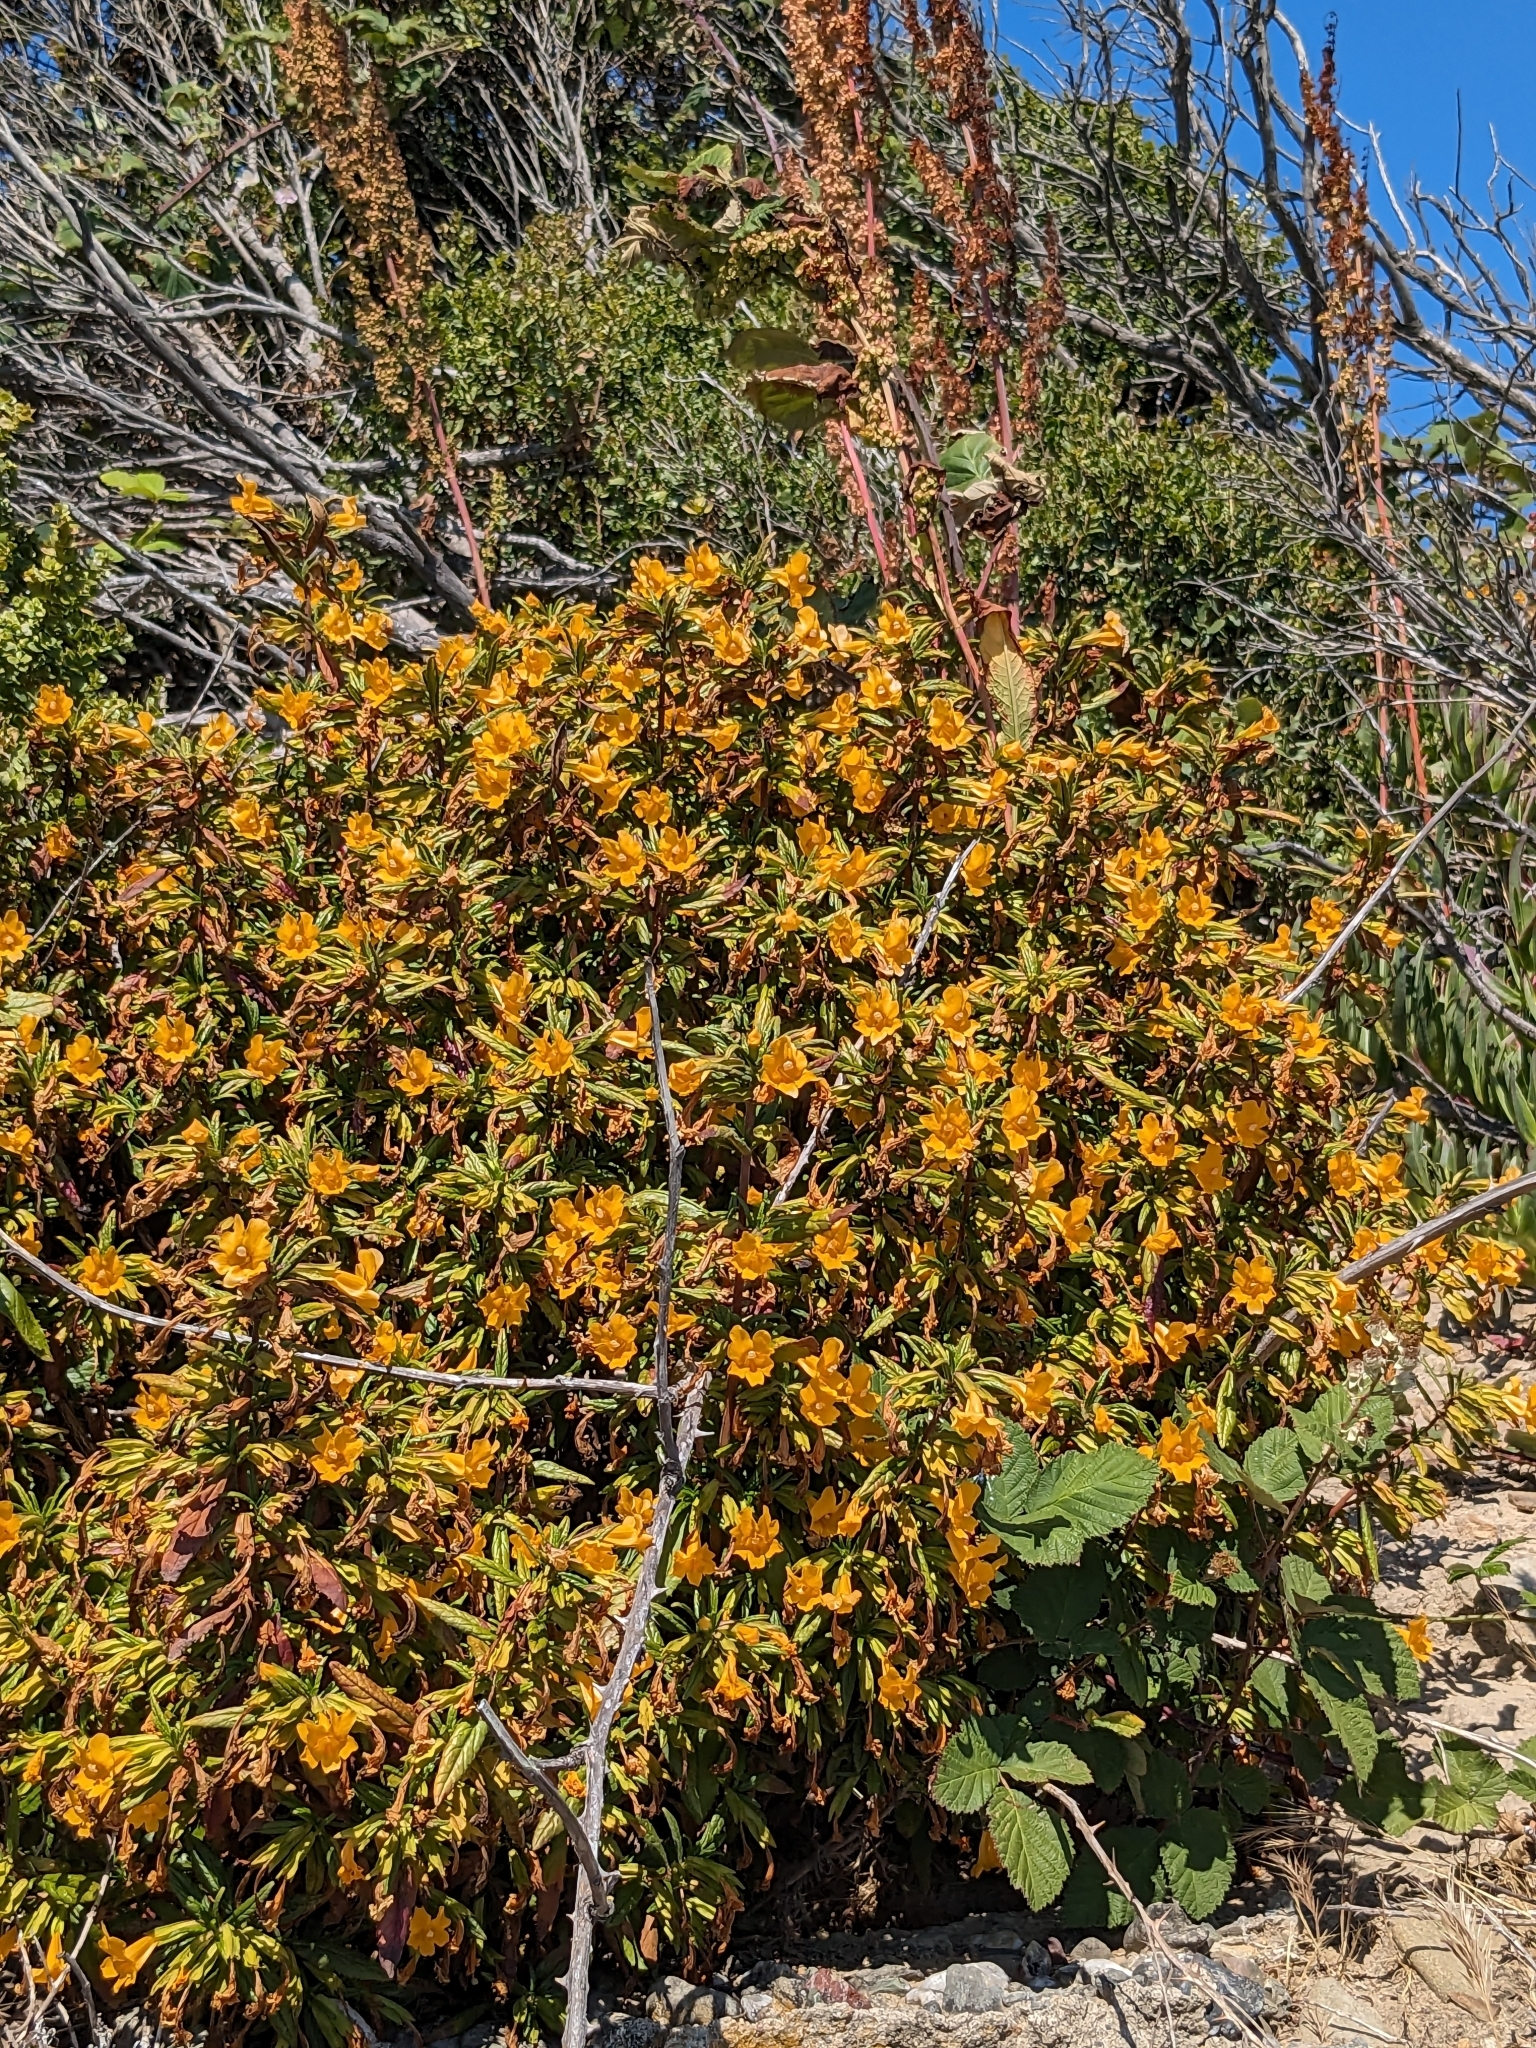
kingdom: Plantae
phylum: Tracheophyta
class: Magnoliopsida
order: Lamiales
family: Phrymaceae
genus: Diplacus
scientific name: Diplacus aurantiacus
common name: Bush monkey-flower
